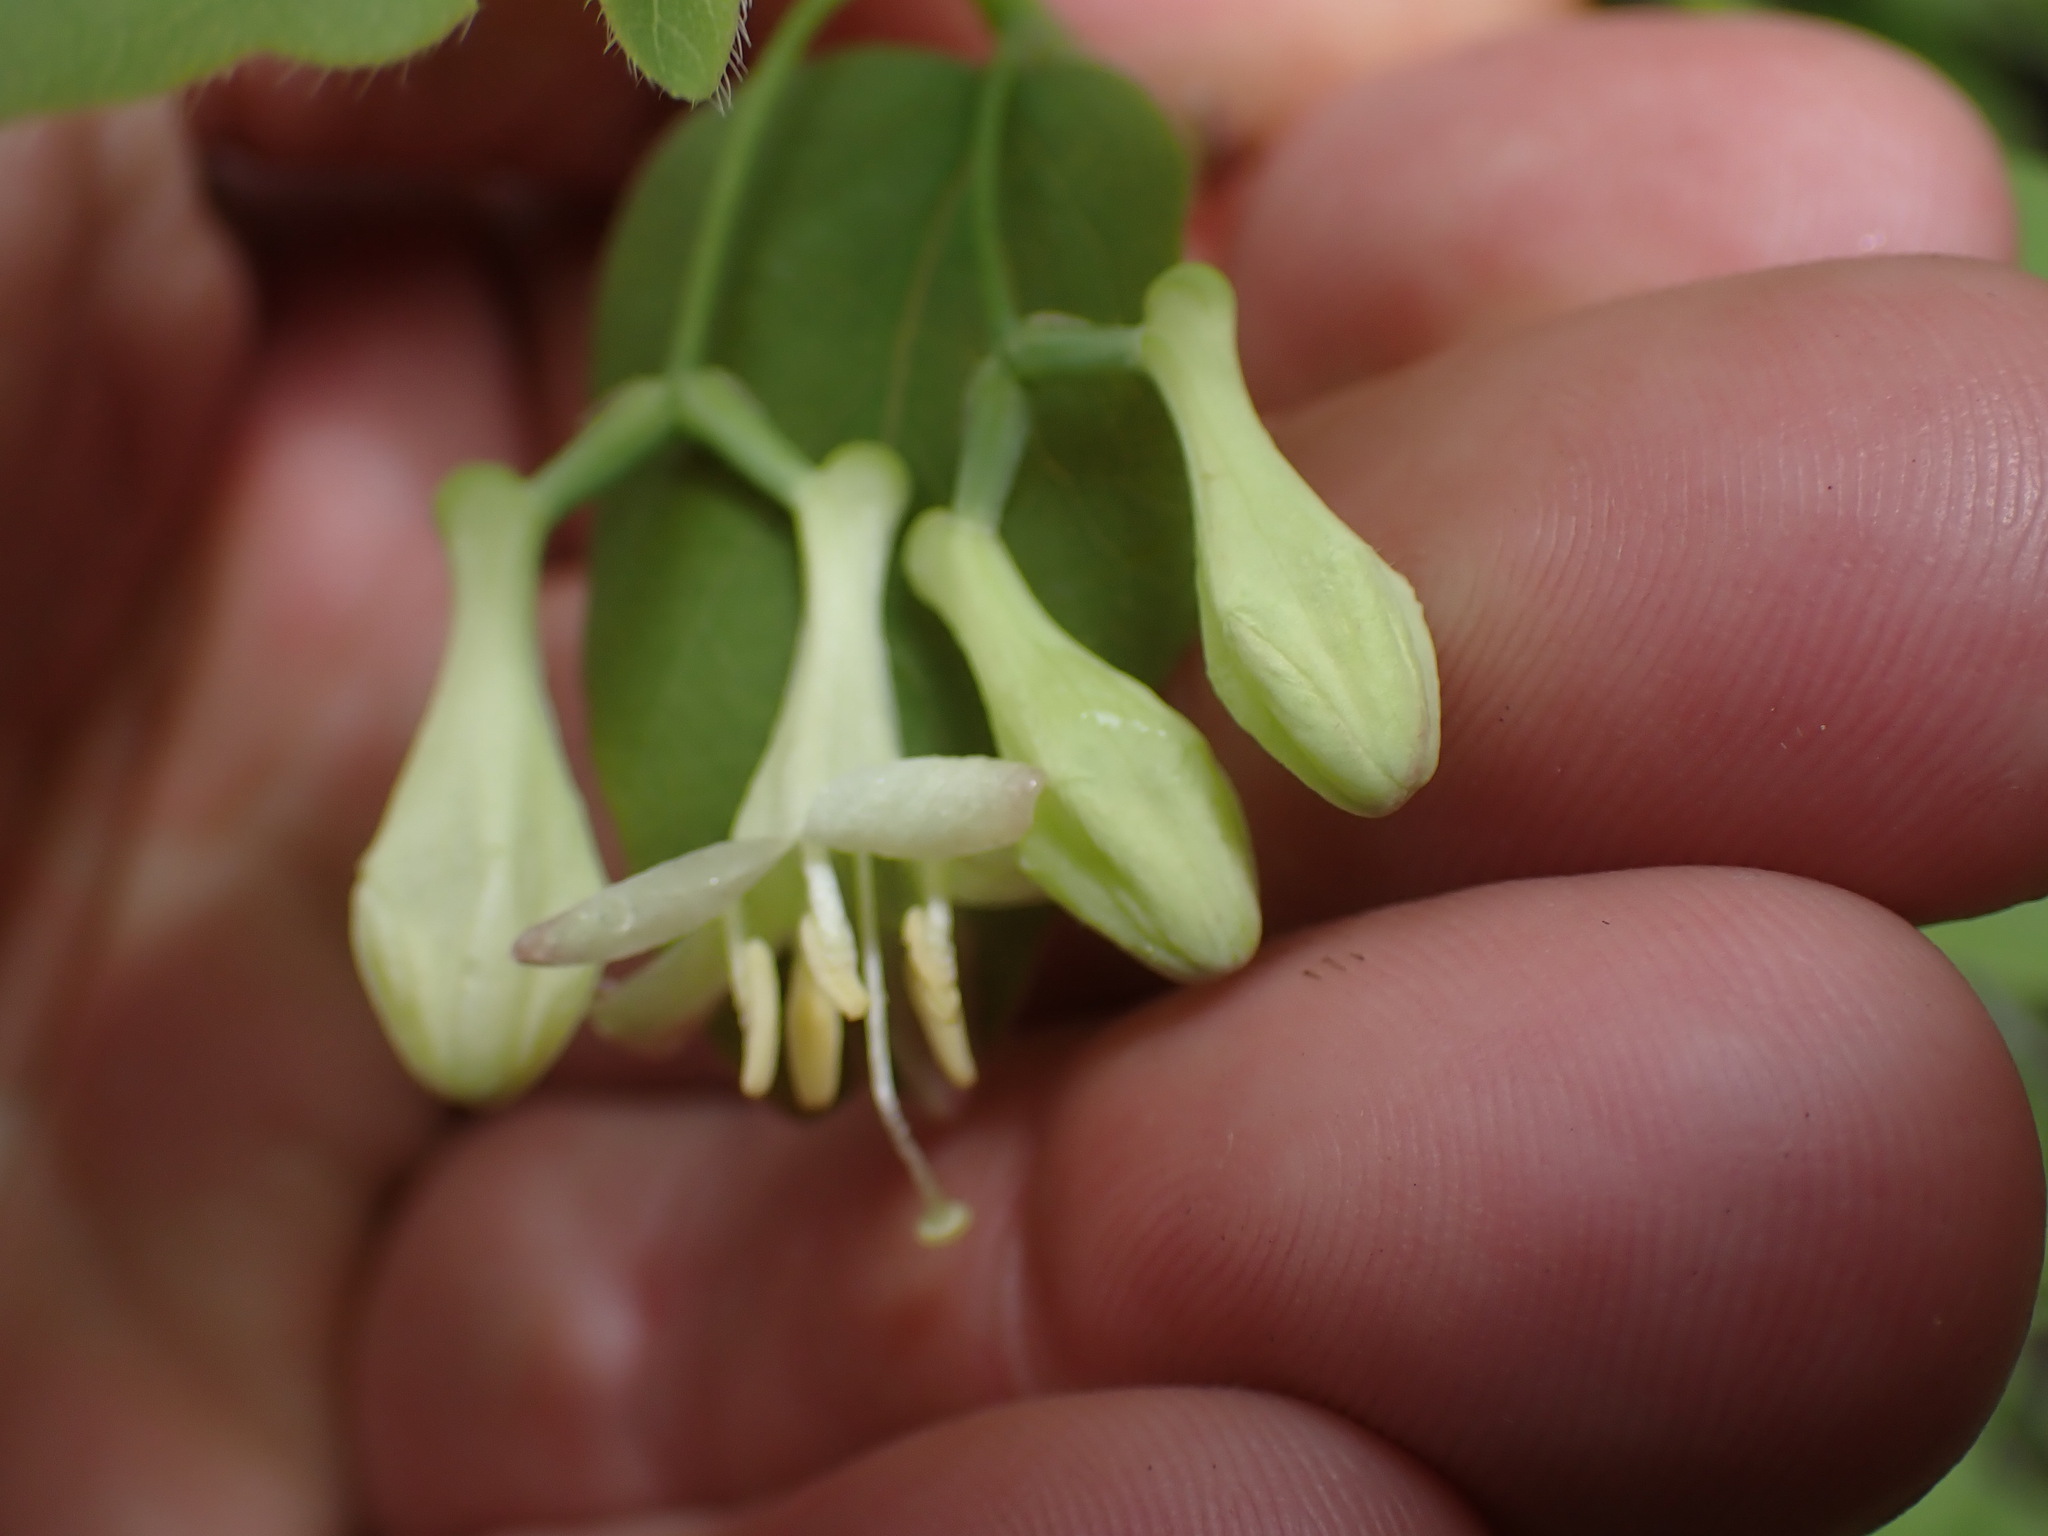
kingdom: Plantae
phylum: Tracheophyta
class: Magnoliopsida
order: Dipsacales
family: Caprifoliaceae
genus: Lonicera
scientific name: Lonicera utahensis
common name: Utah honeysuckle
